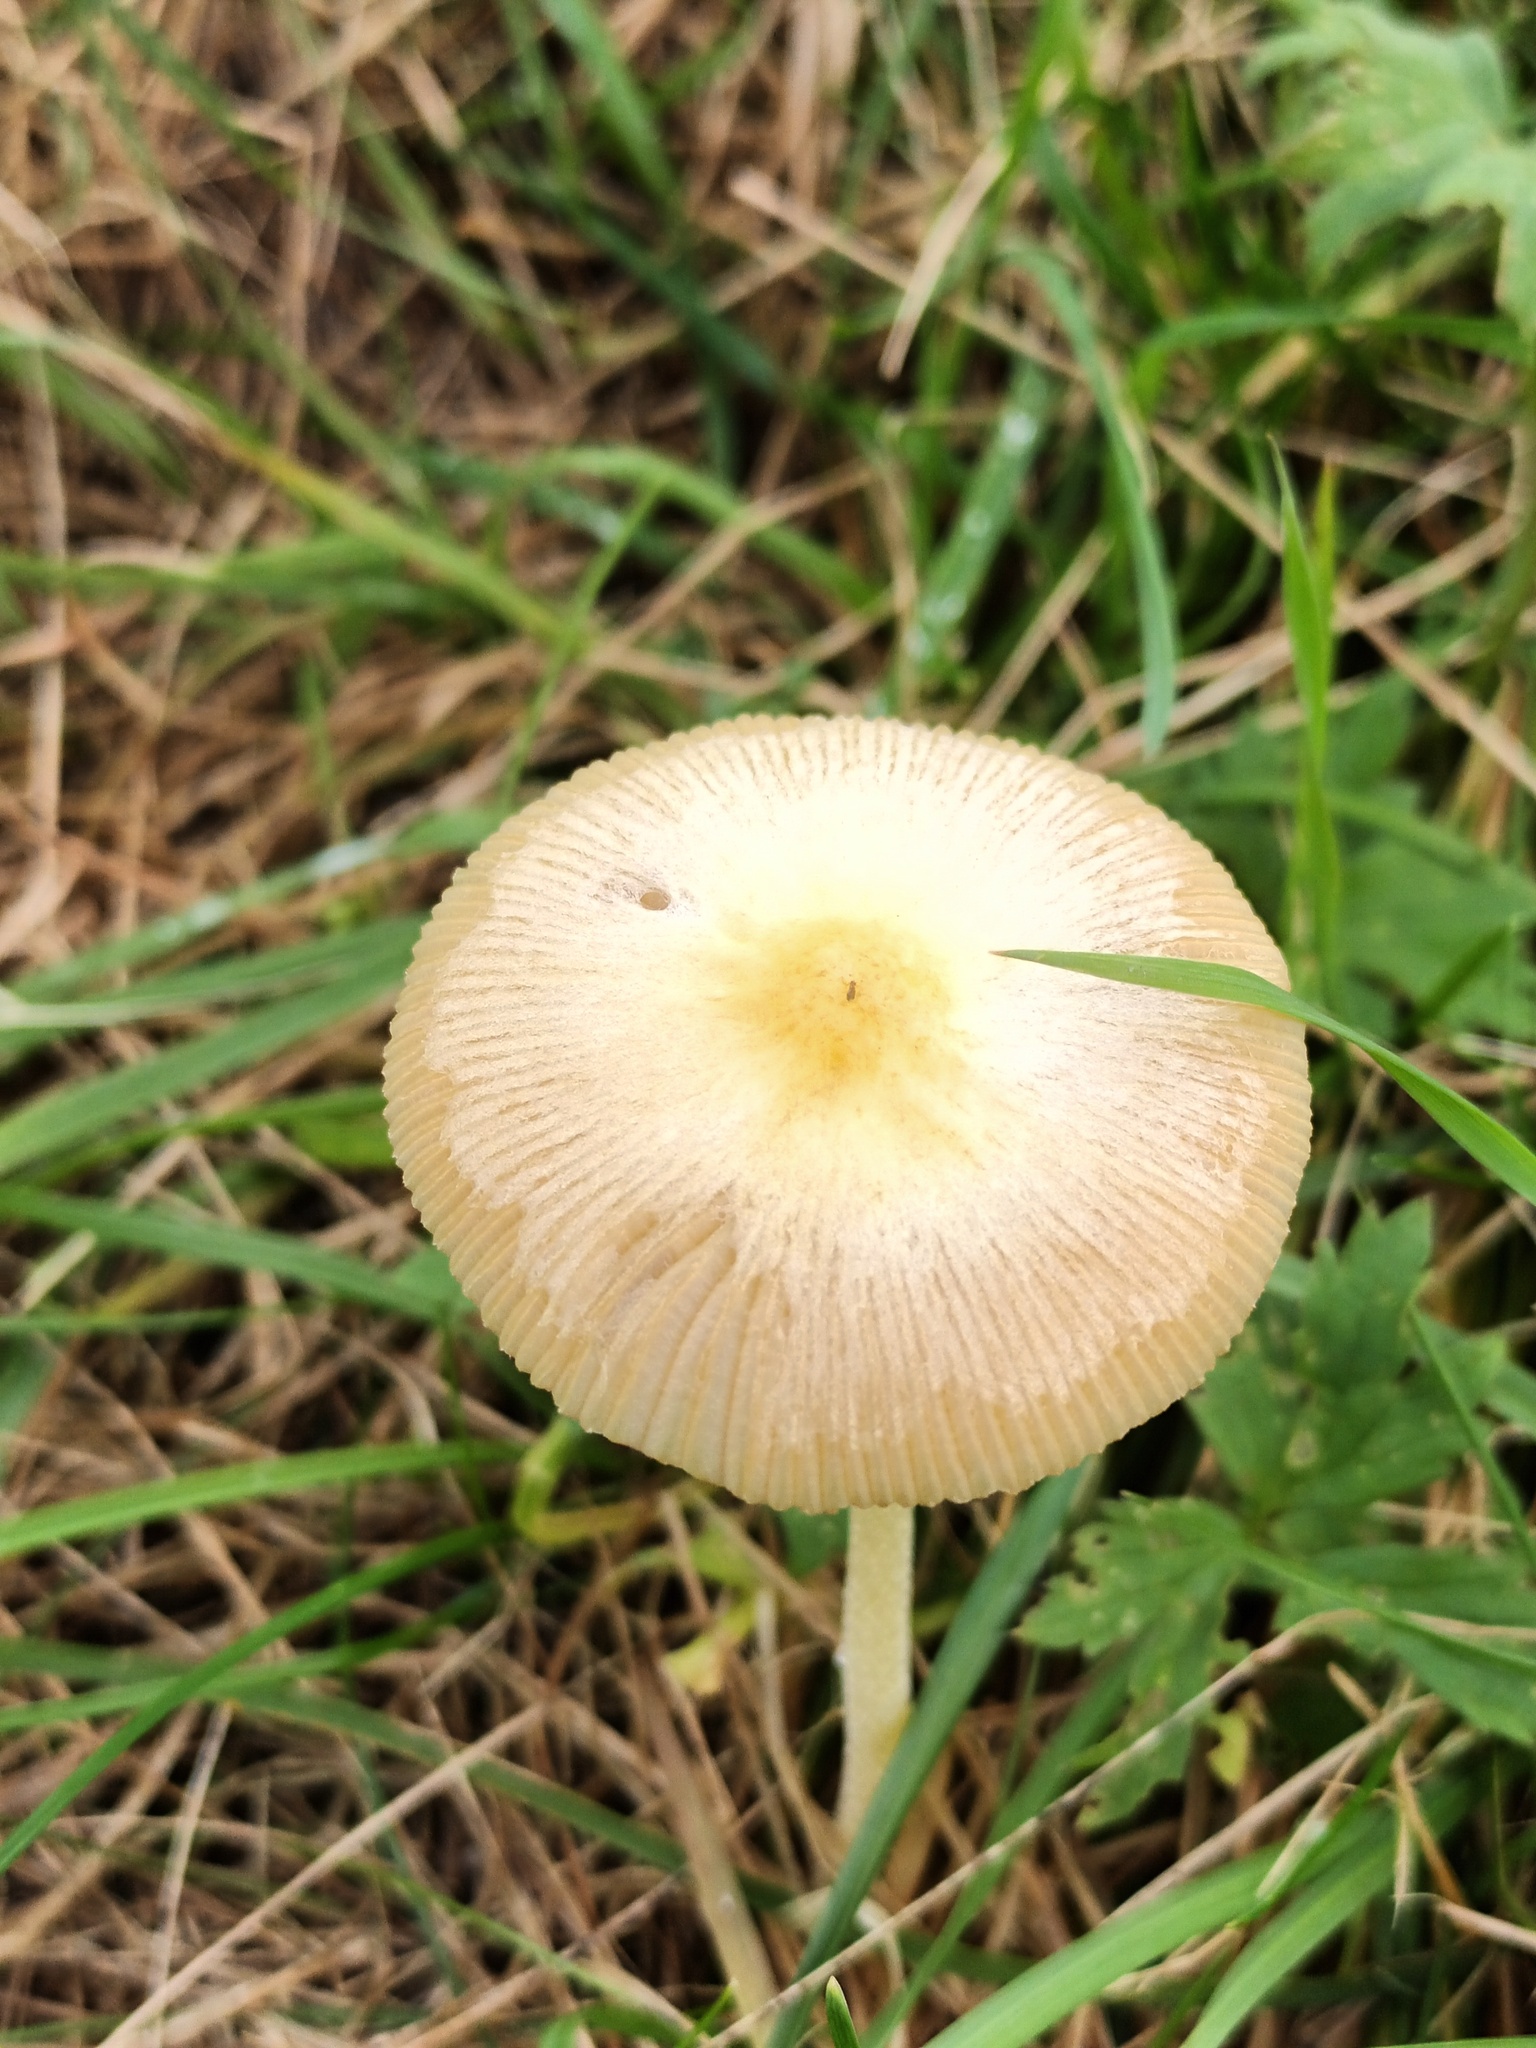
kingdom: Fungi
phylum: Basidiomycota
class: Agaricomycetes
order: Agaricales
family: Bolbitiaceae
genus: Bolbitius
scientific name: Bolbitius titubans
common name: Yellow fieldcap
